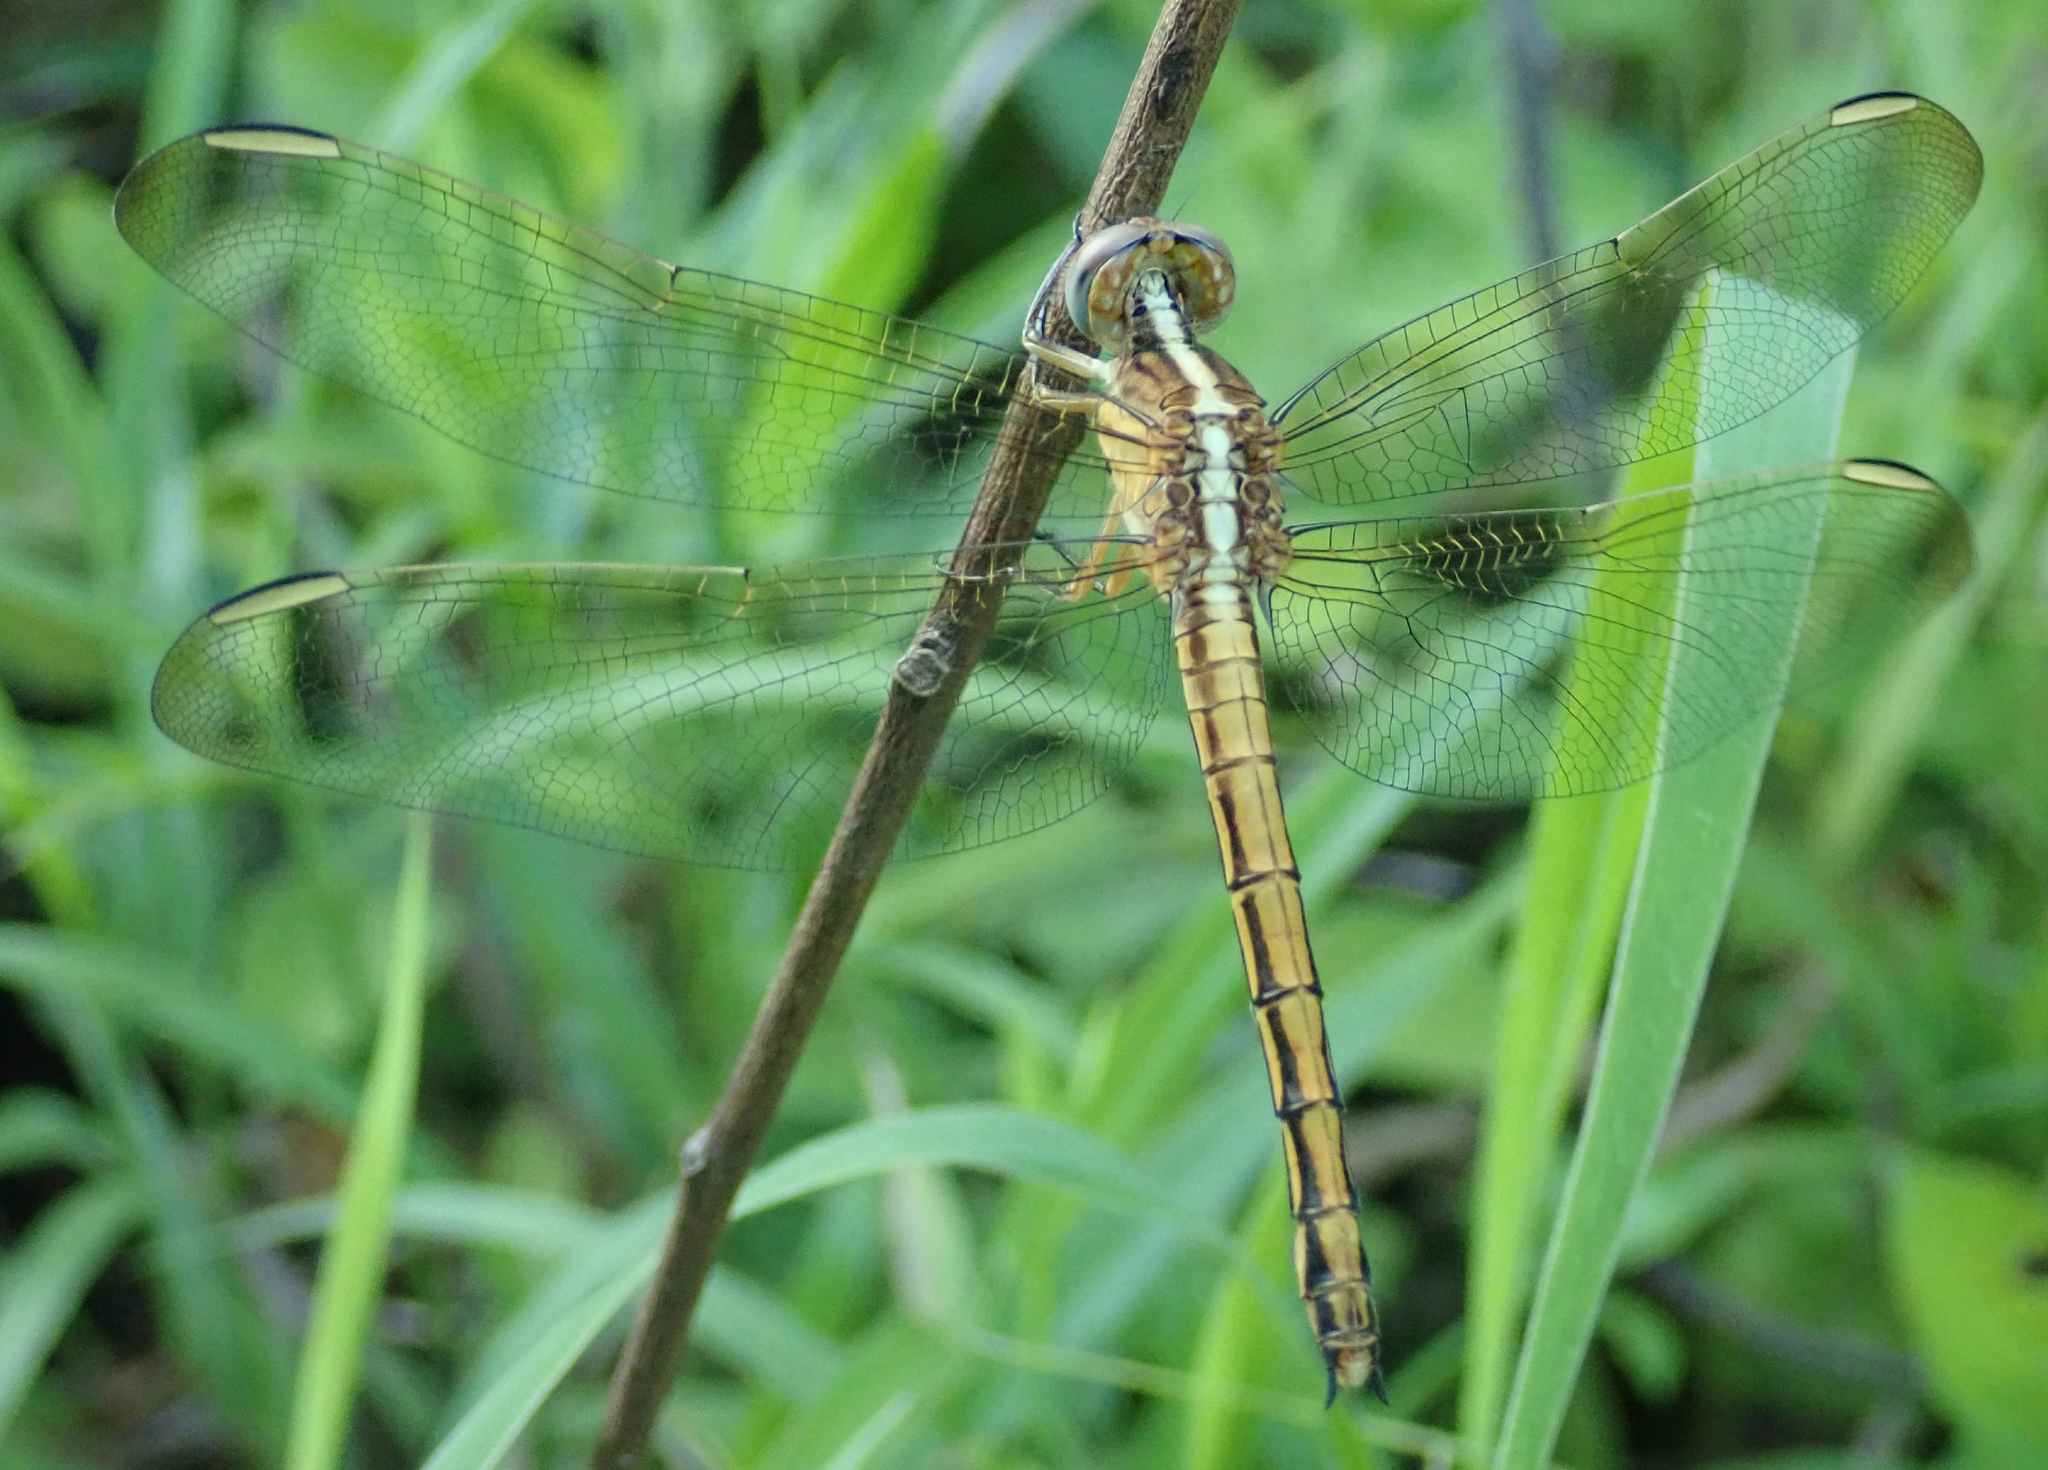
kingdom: Animalia
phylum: Arthropoda
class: Insecta
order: Odonata
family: Libellulidae
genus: Nesciothemis
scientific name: Nesciothemis farinosa
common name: Eastern blacktail
